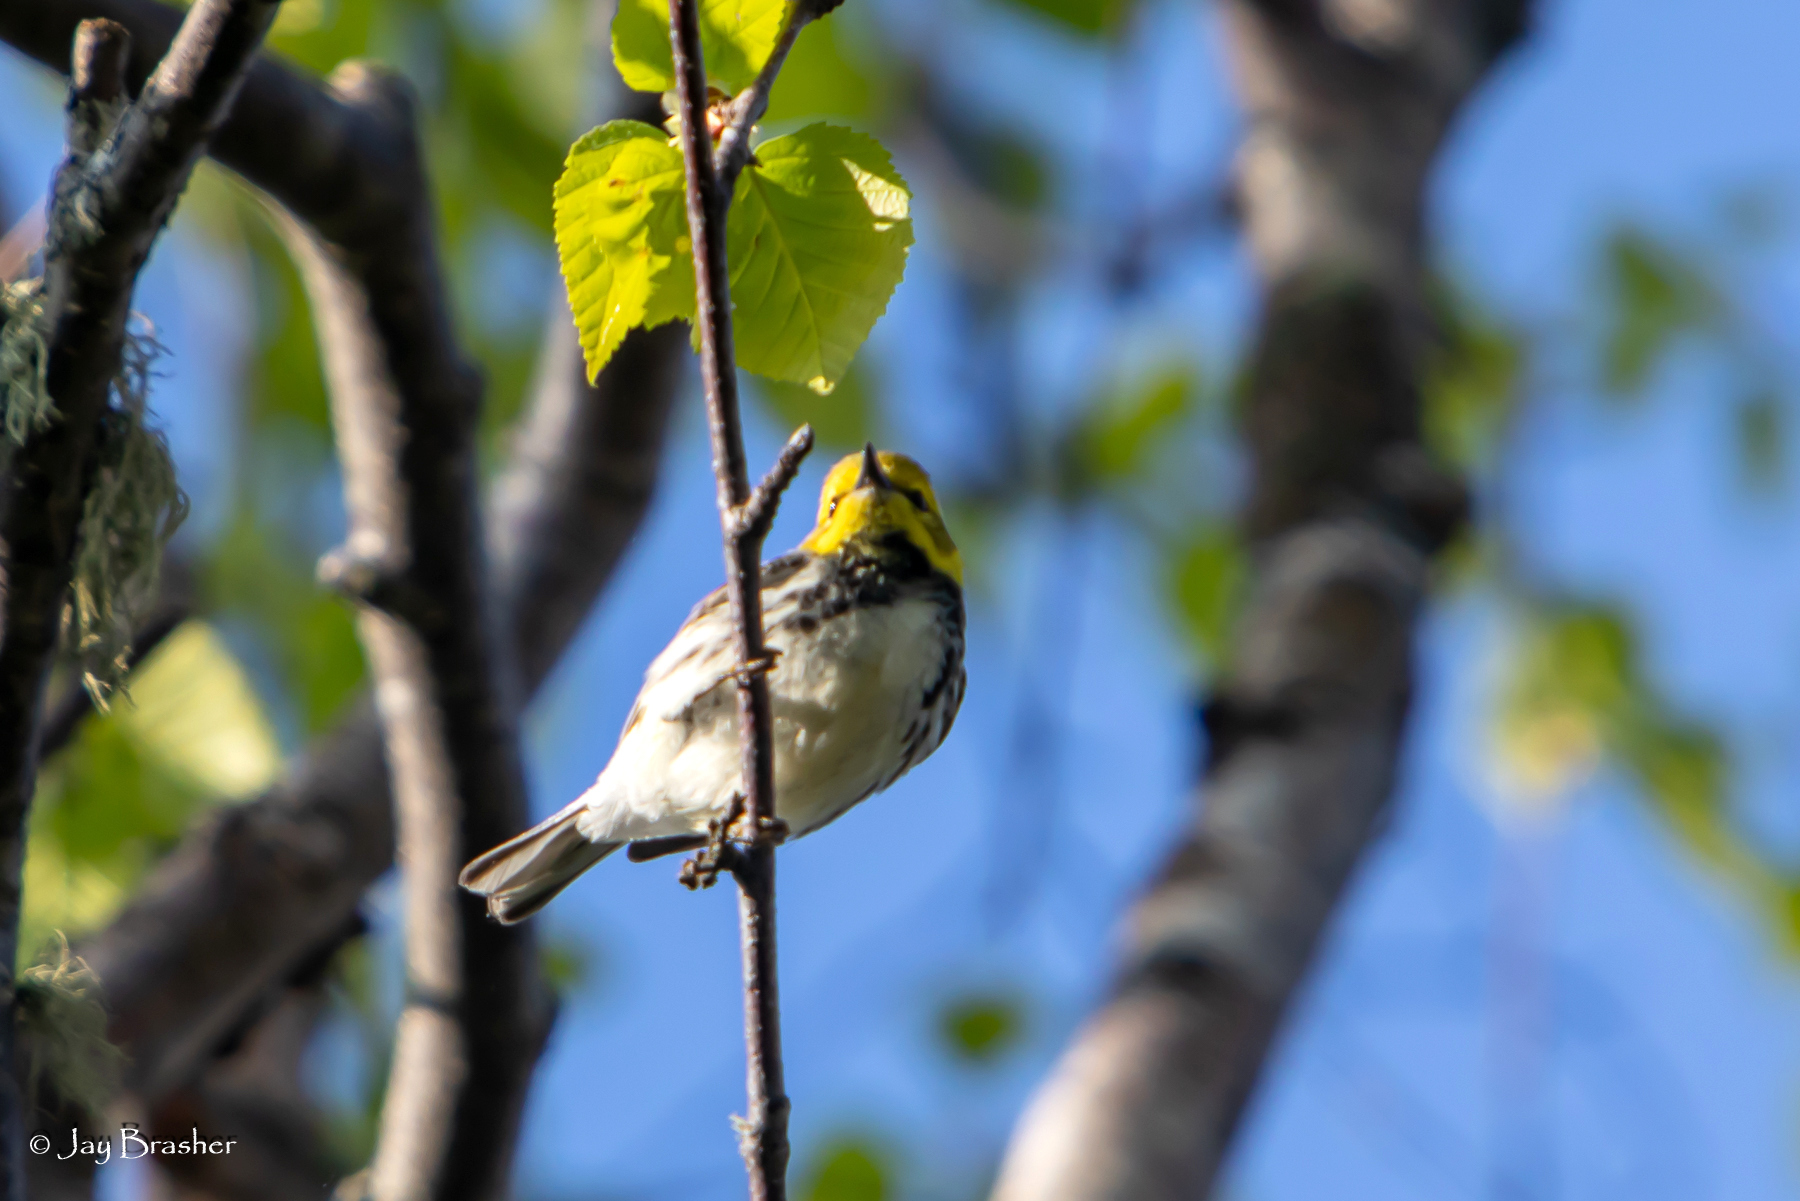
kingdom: Animalia
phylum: Chordata
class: Aves
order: Passeriformes
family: Parulidae
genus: Setophaga
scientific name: Setophaga virens
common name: Black-throated green warbler
